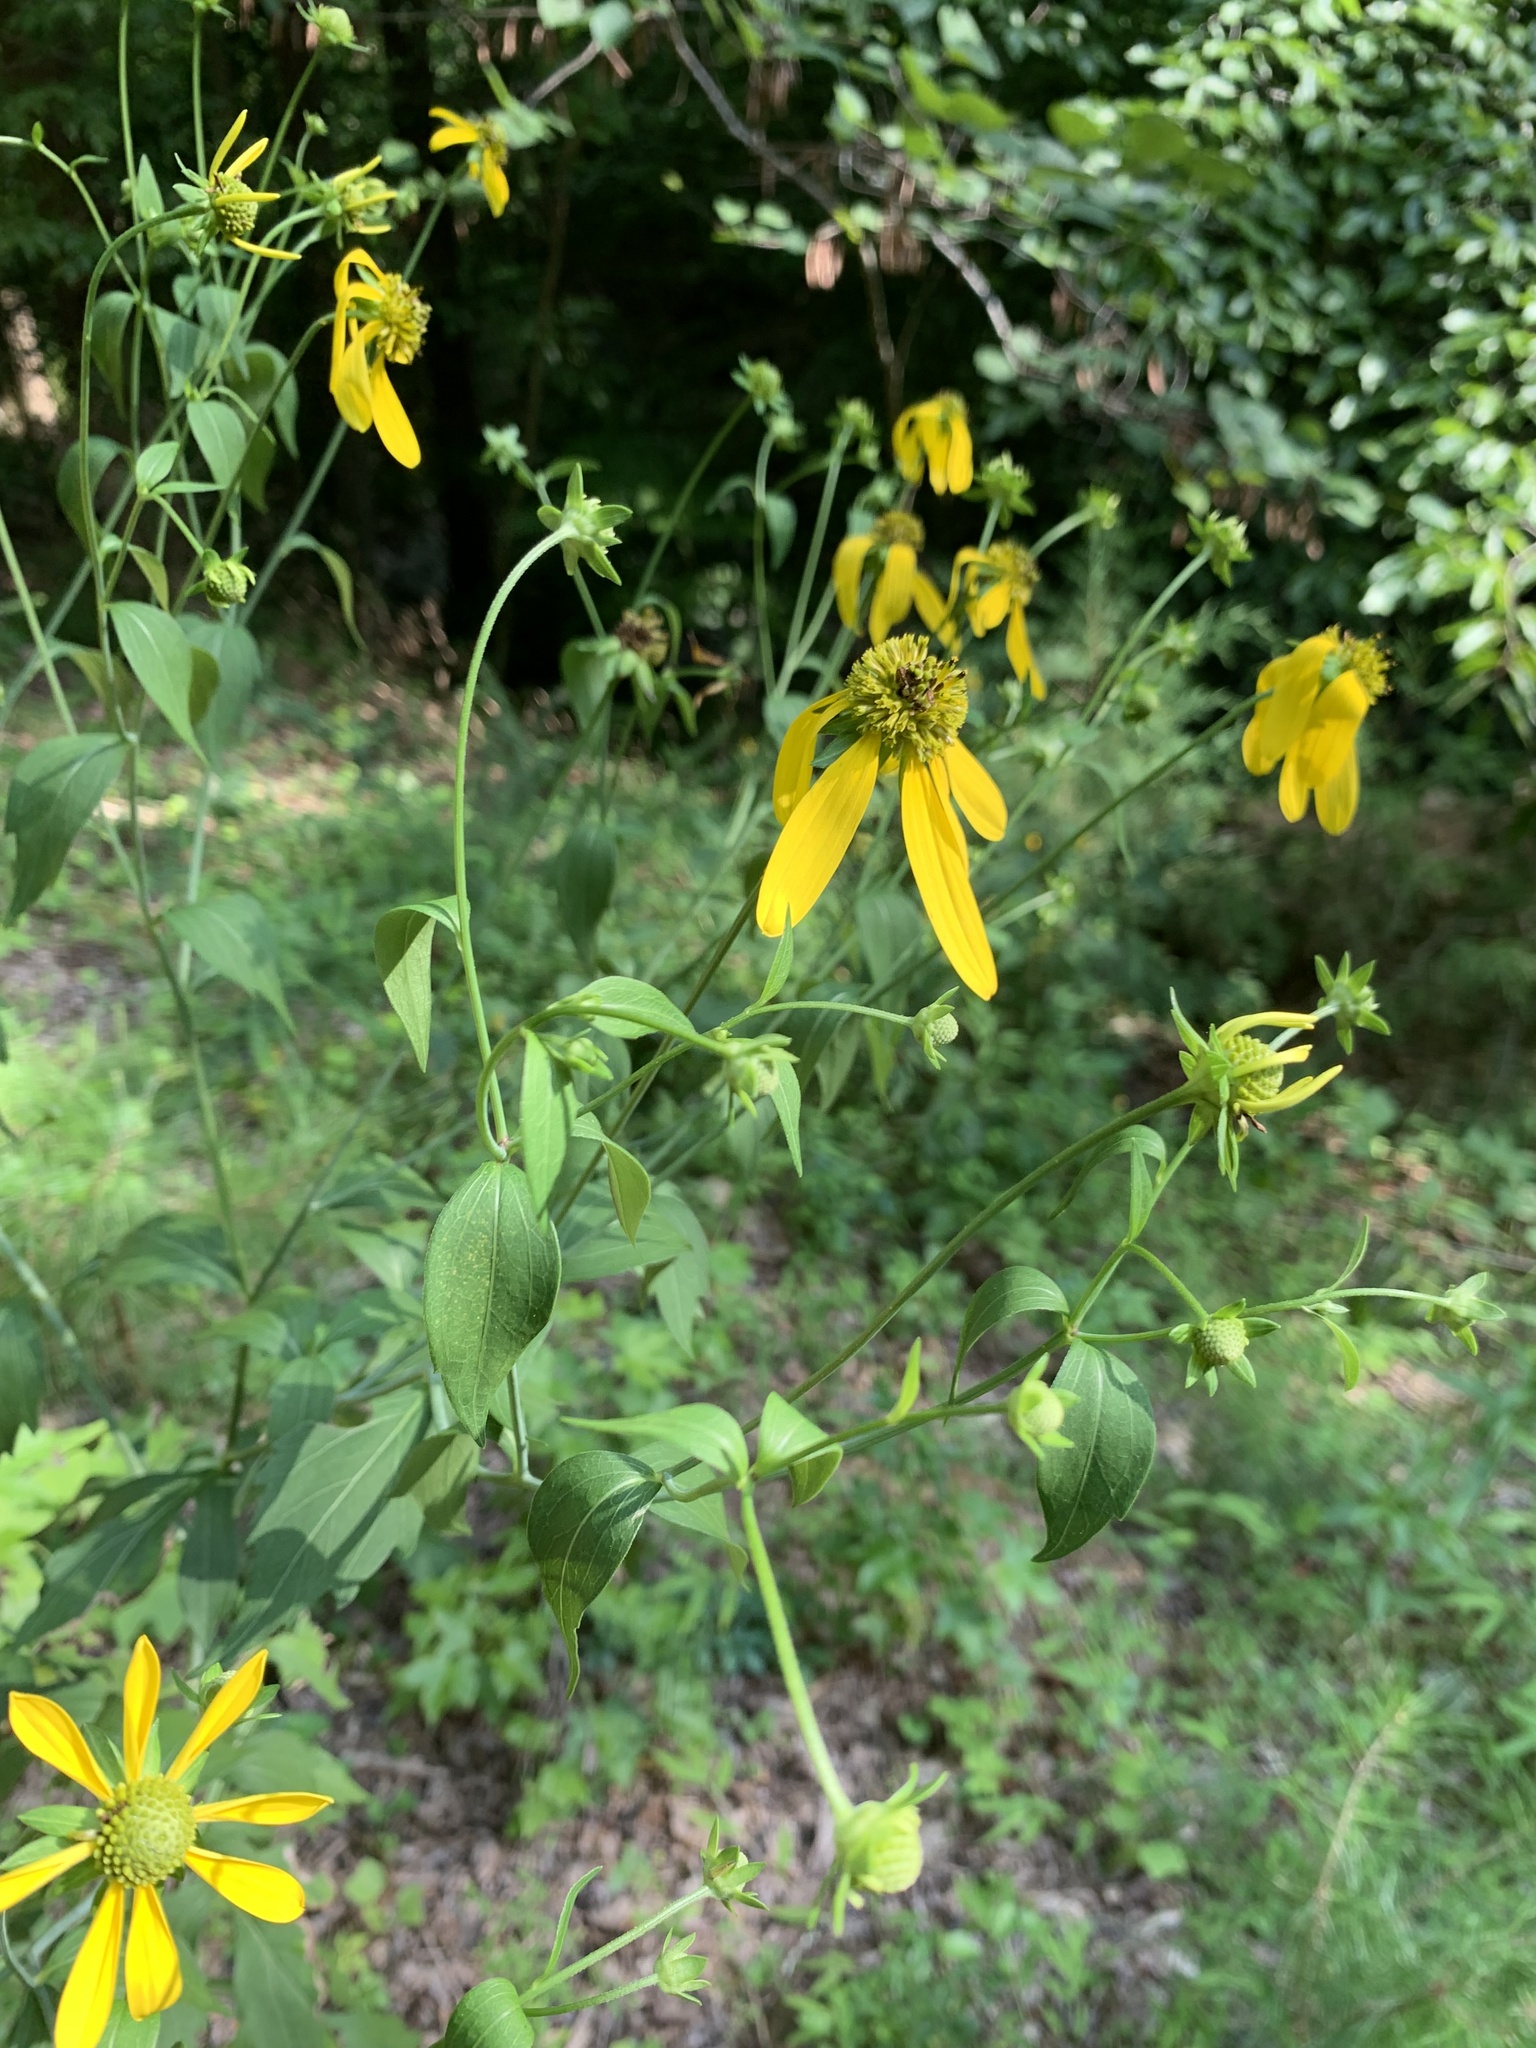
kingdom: Plantae
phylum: Tracheophyta
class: Magnoliopsida
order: Asterales
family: Asteraceae
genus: Rudbeckia
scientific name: Rudbeckia laciniata
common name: Coneflower
